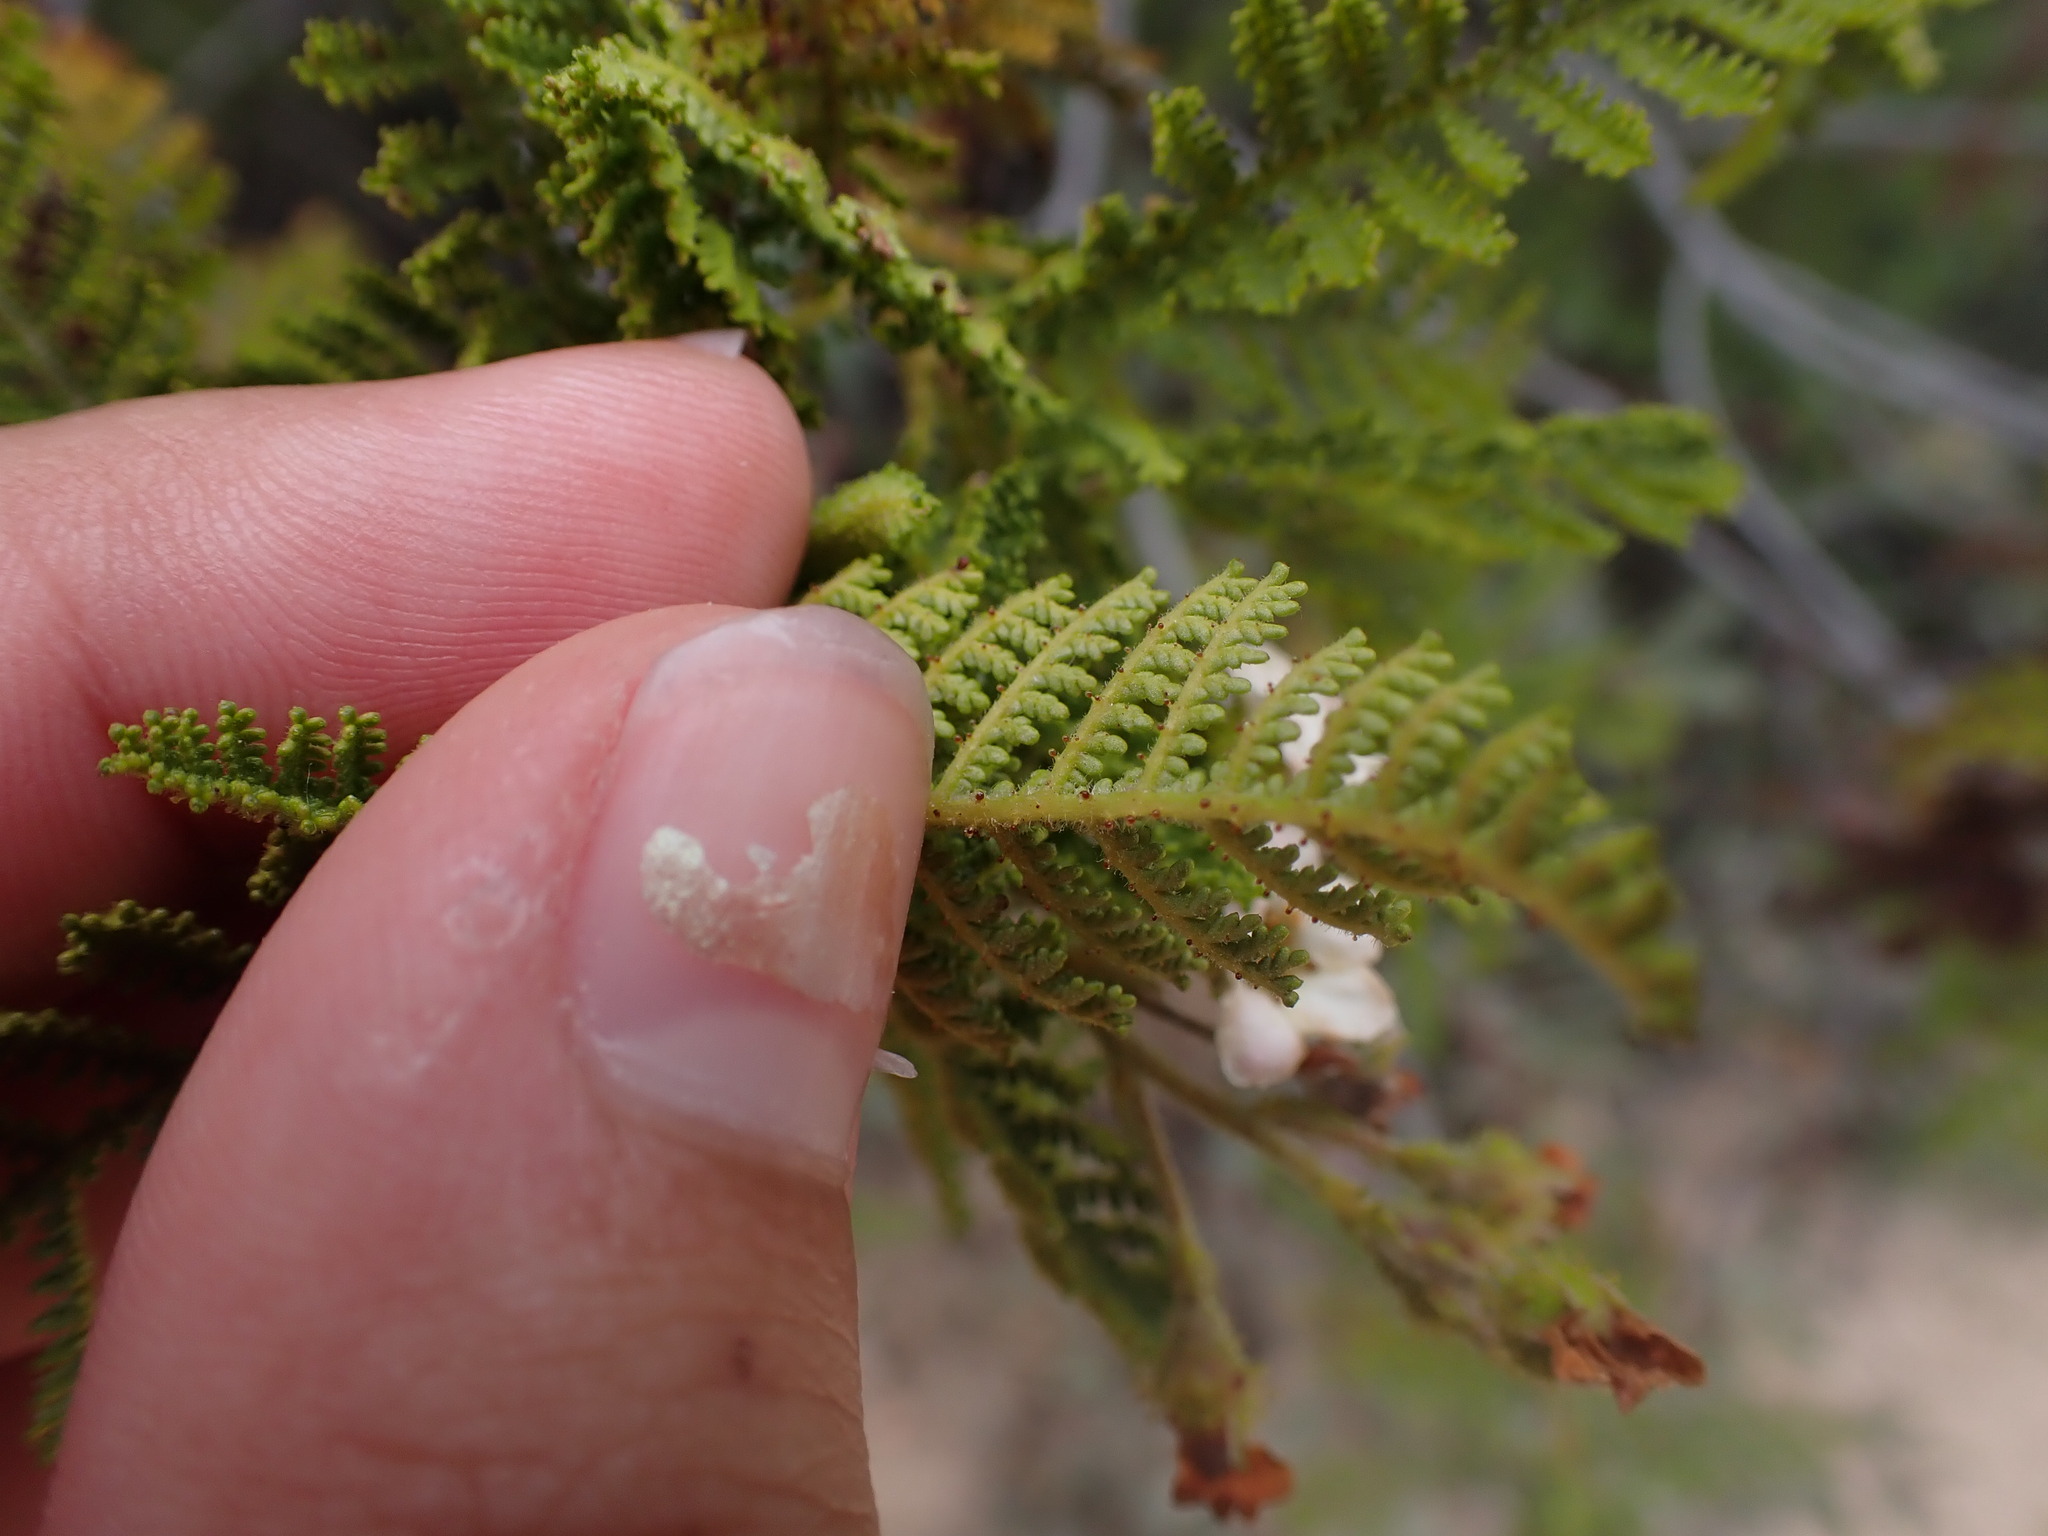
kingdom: Plantae
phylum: Tracheophyta
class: Magnoliopsida
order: Rosales
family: Rosaceae
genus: Chamaebatia
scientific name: Chamaebatia australis
